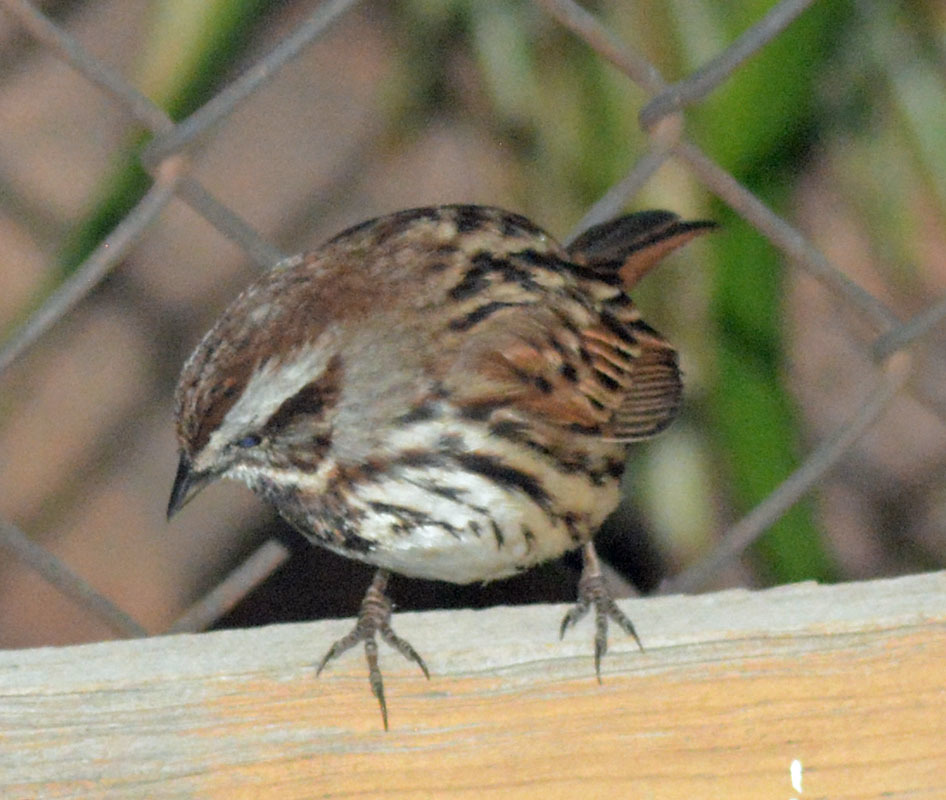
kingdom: Animalia
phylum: Chordata
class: Aves
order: Passeriformes
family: Passerellidae
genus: Melospiza
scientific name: Melospiza melodia
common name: Song sparrow
